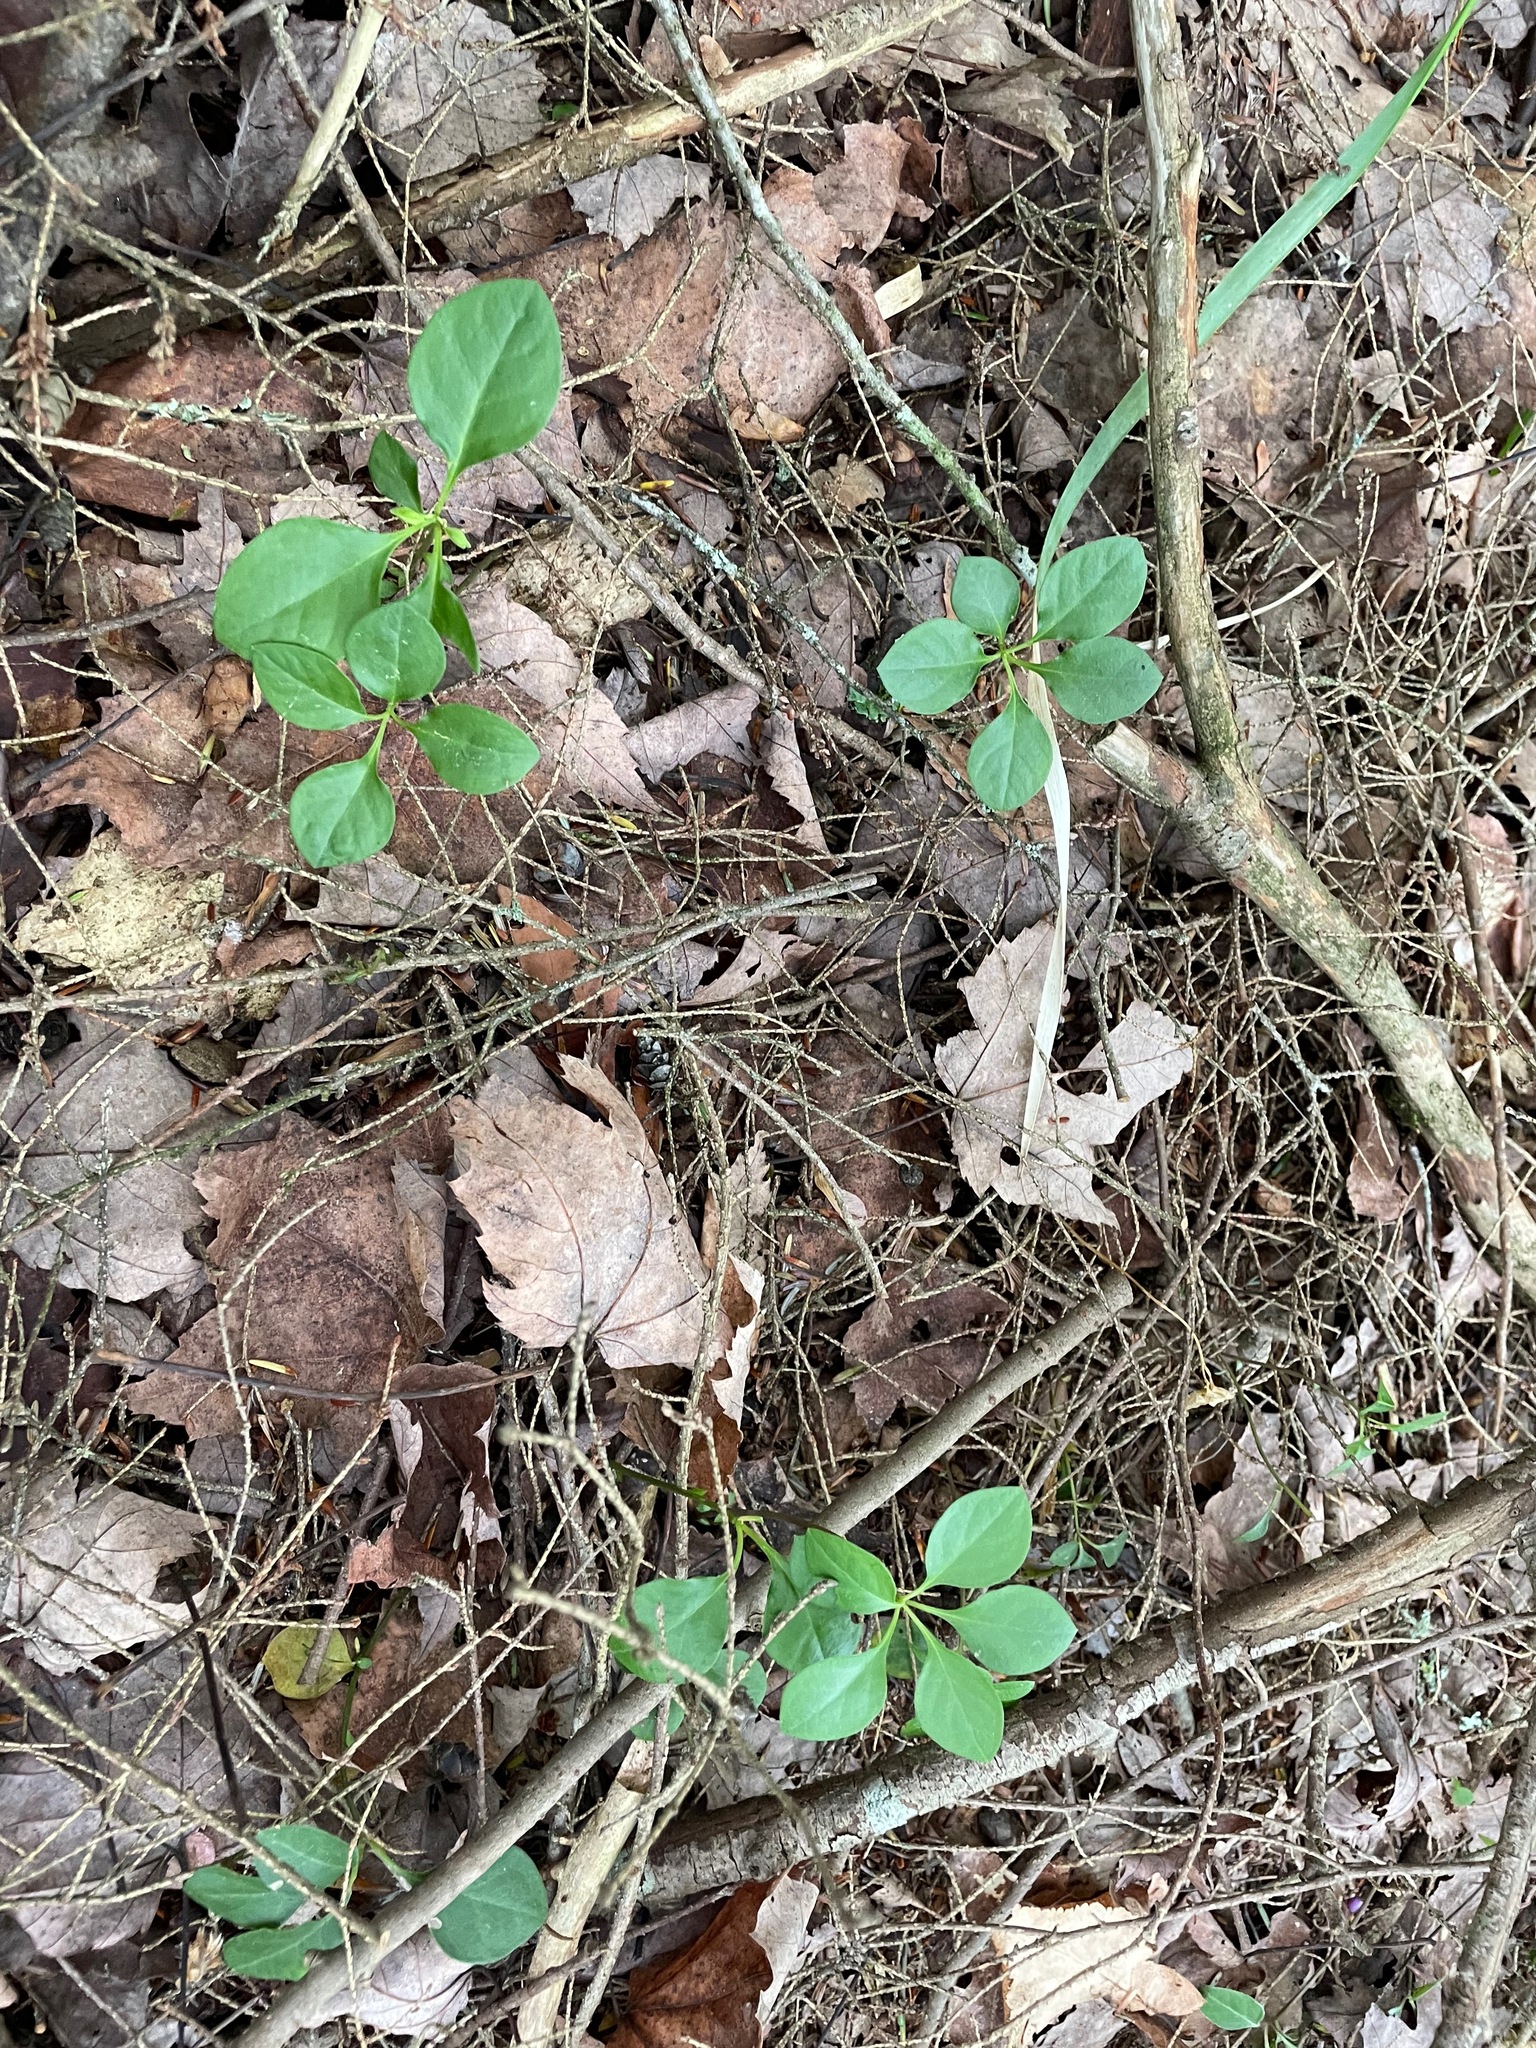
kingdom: Plantae
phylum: Tracheophyta
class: Magnoliopsida
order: Fabales
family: Polygalaceae
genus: Polygaloides
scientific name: Polygaloides paucifolia
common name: Bird-on-the-wing
